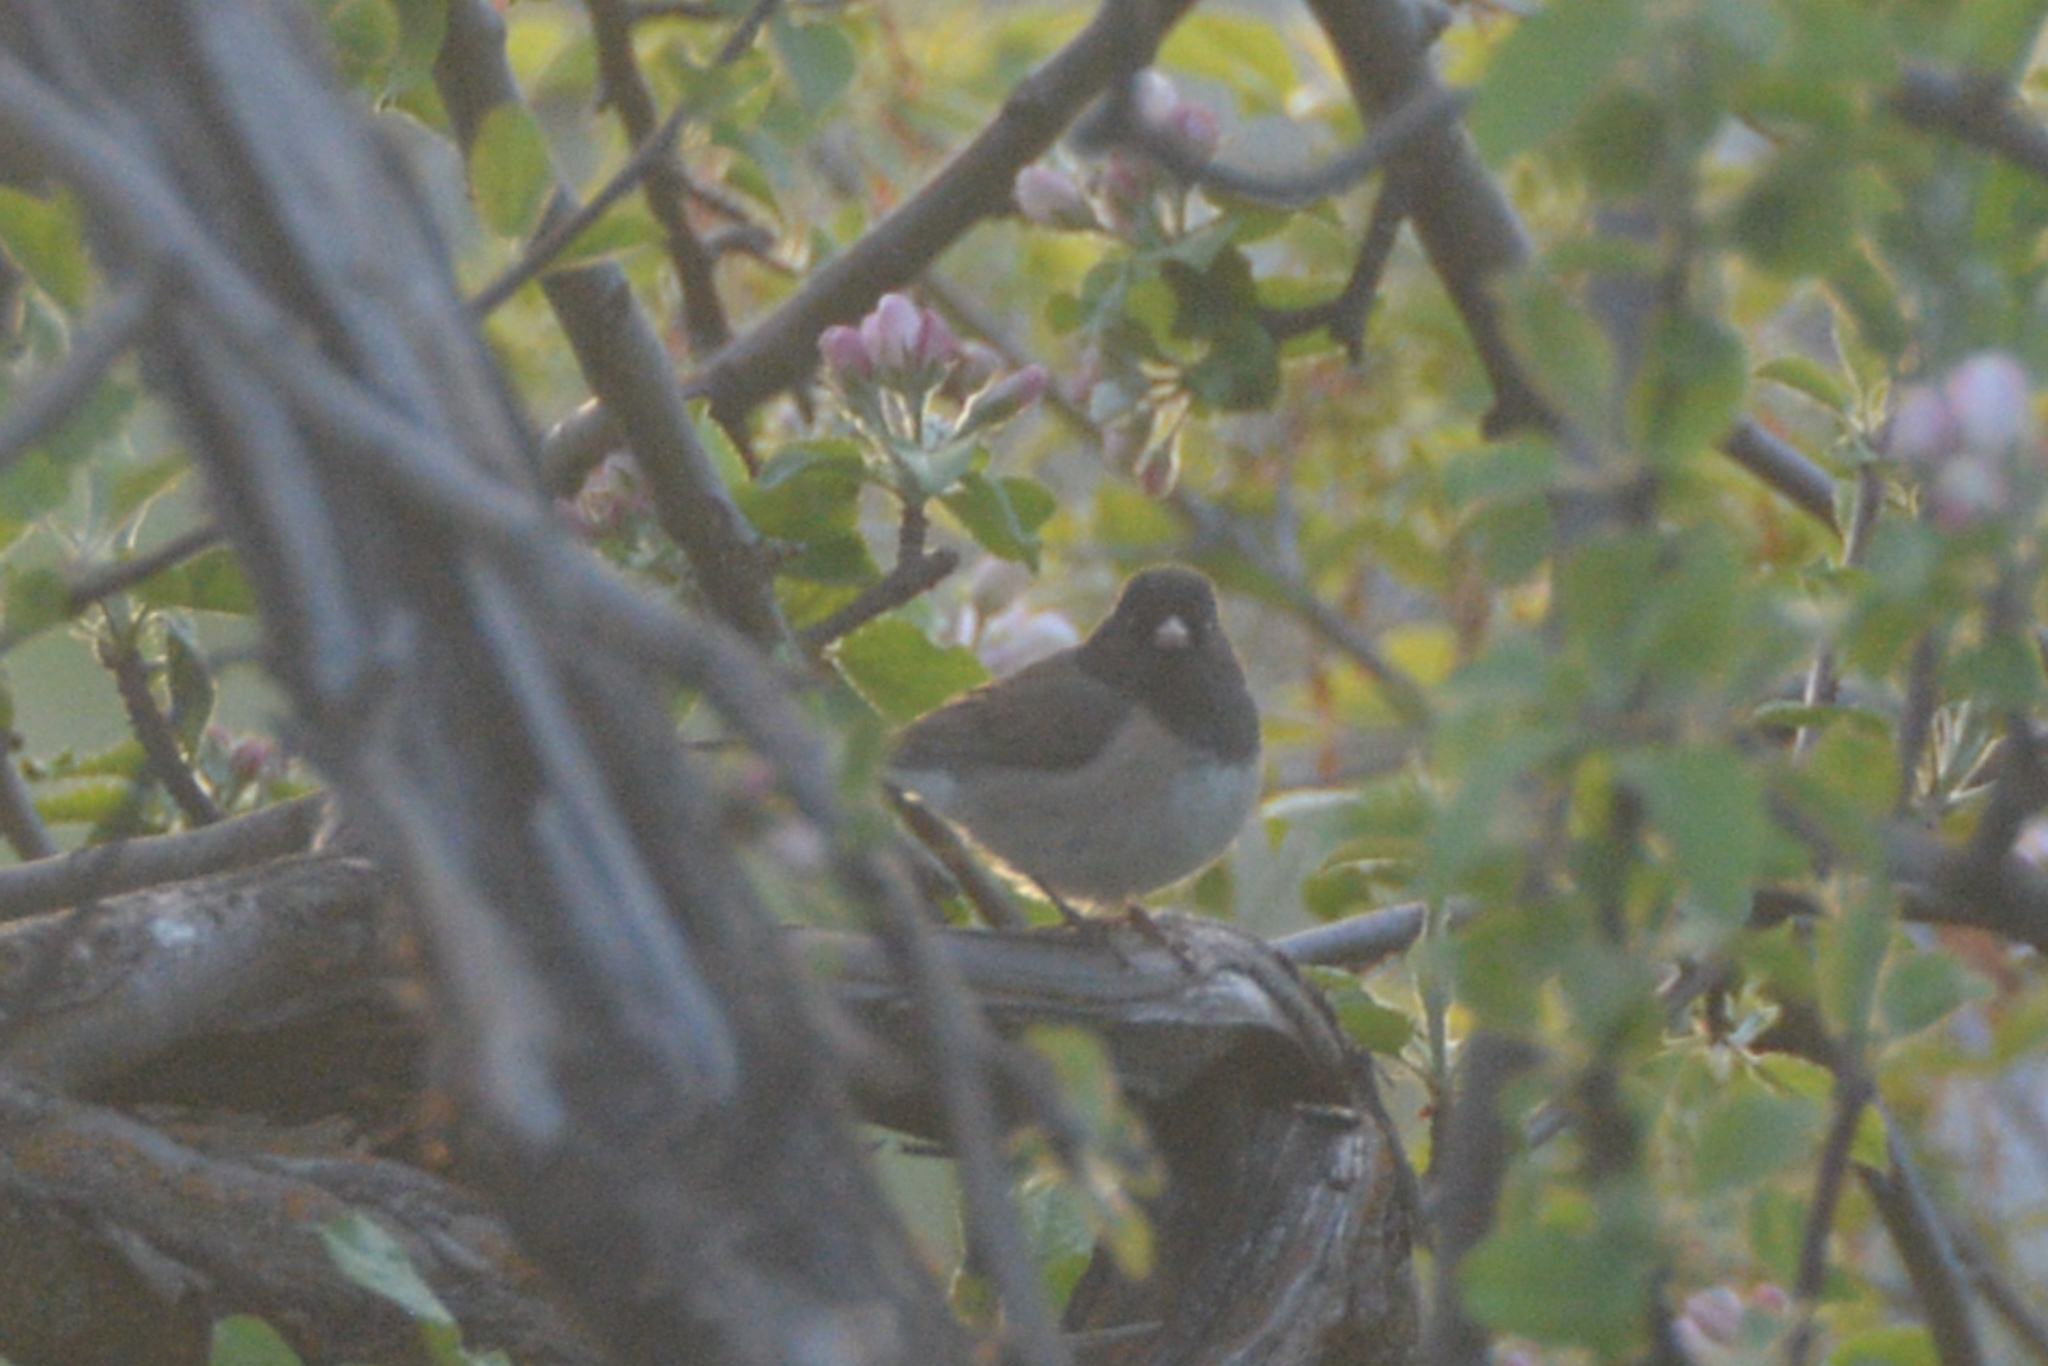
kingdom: Animalia
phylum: Chordata
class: Aves
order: Passeriformes
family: Passerellidae
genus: Junco
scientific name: Junco hyemalis
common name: Dark-eyed junco
